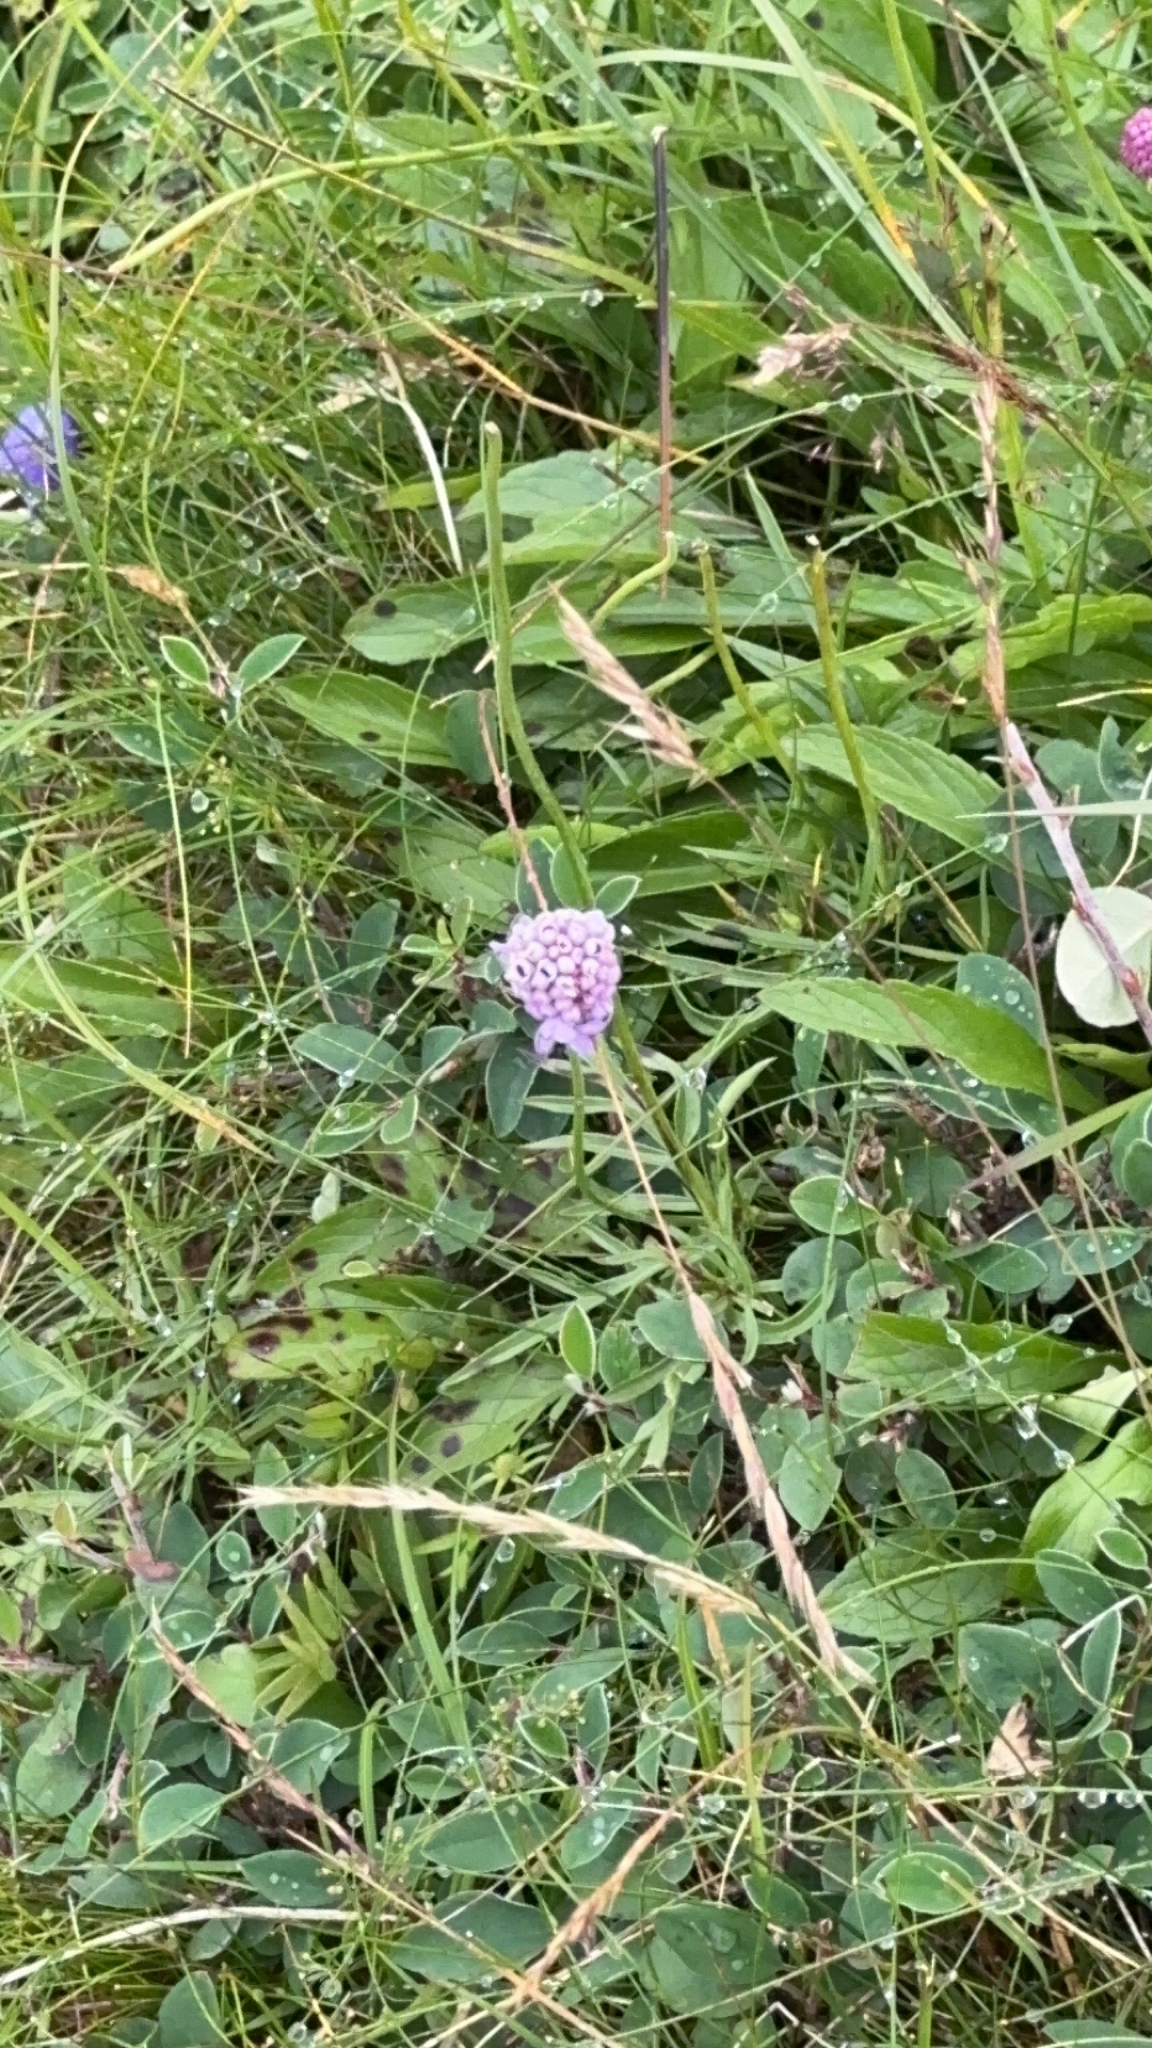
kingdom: Plantae
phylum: Tracheophyta
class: Magnoliopsida
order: Dipsacales
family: Caprifoliaceae
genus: Succisa
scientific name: Succisa pratensis
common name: Devil's-bit
